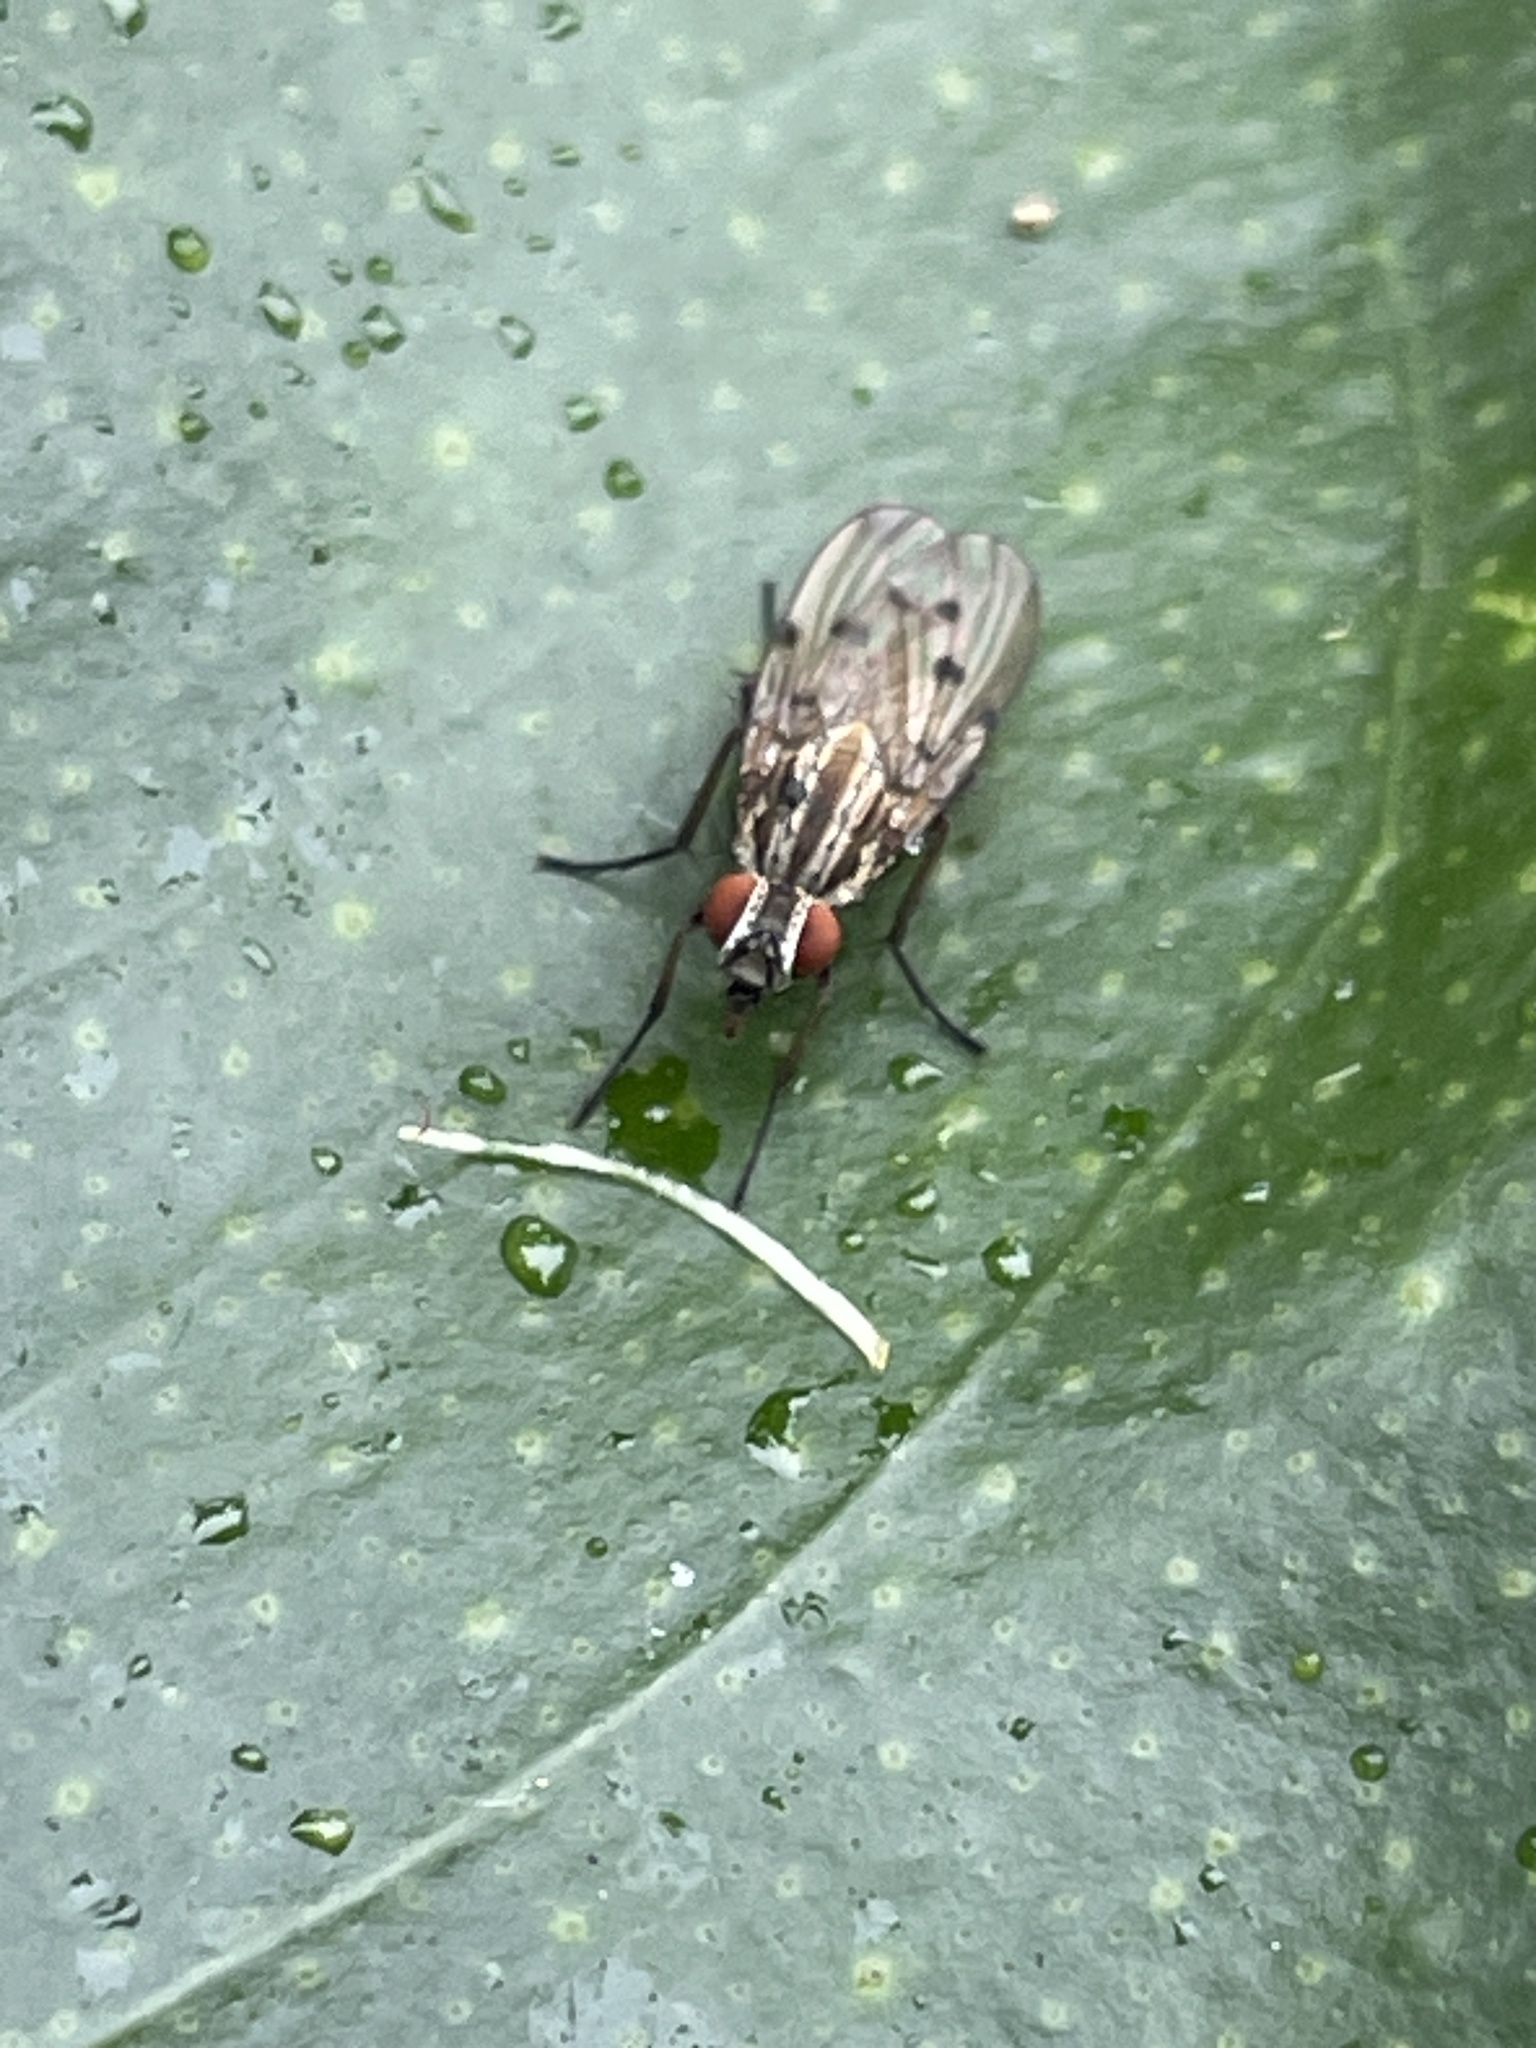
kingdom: Animalia
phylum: Arthropoda
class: Insecta
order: Diptera
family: Anthomyiidae
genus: Anthomyia
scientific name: Anthomyia punctipennis
